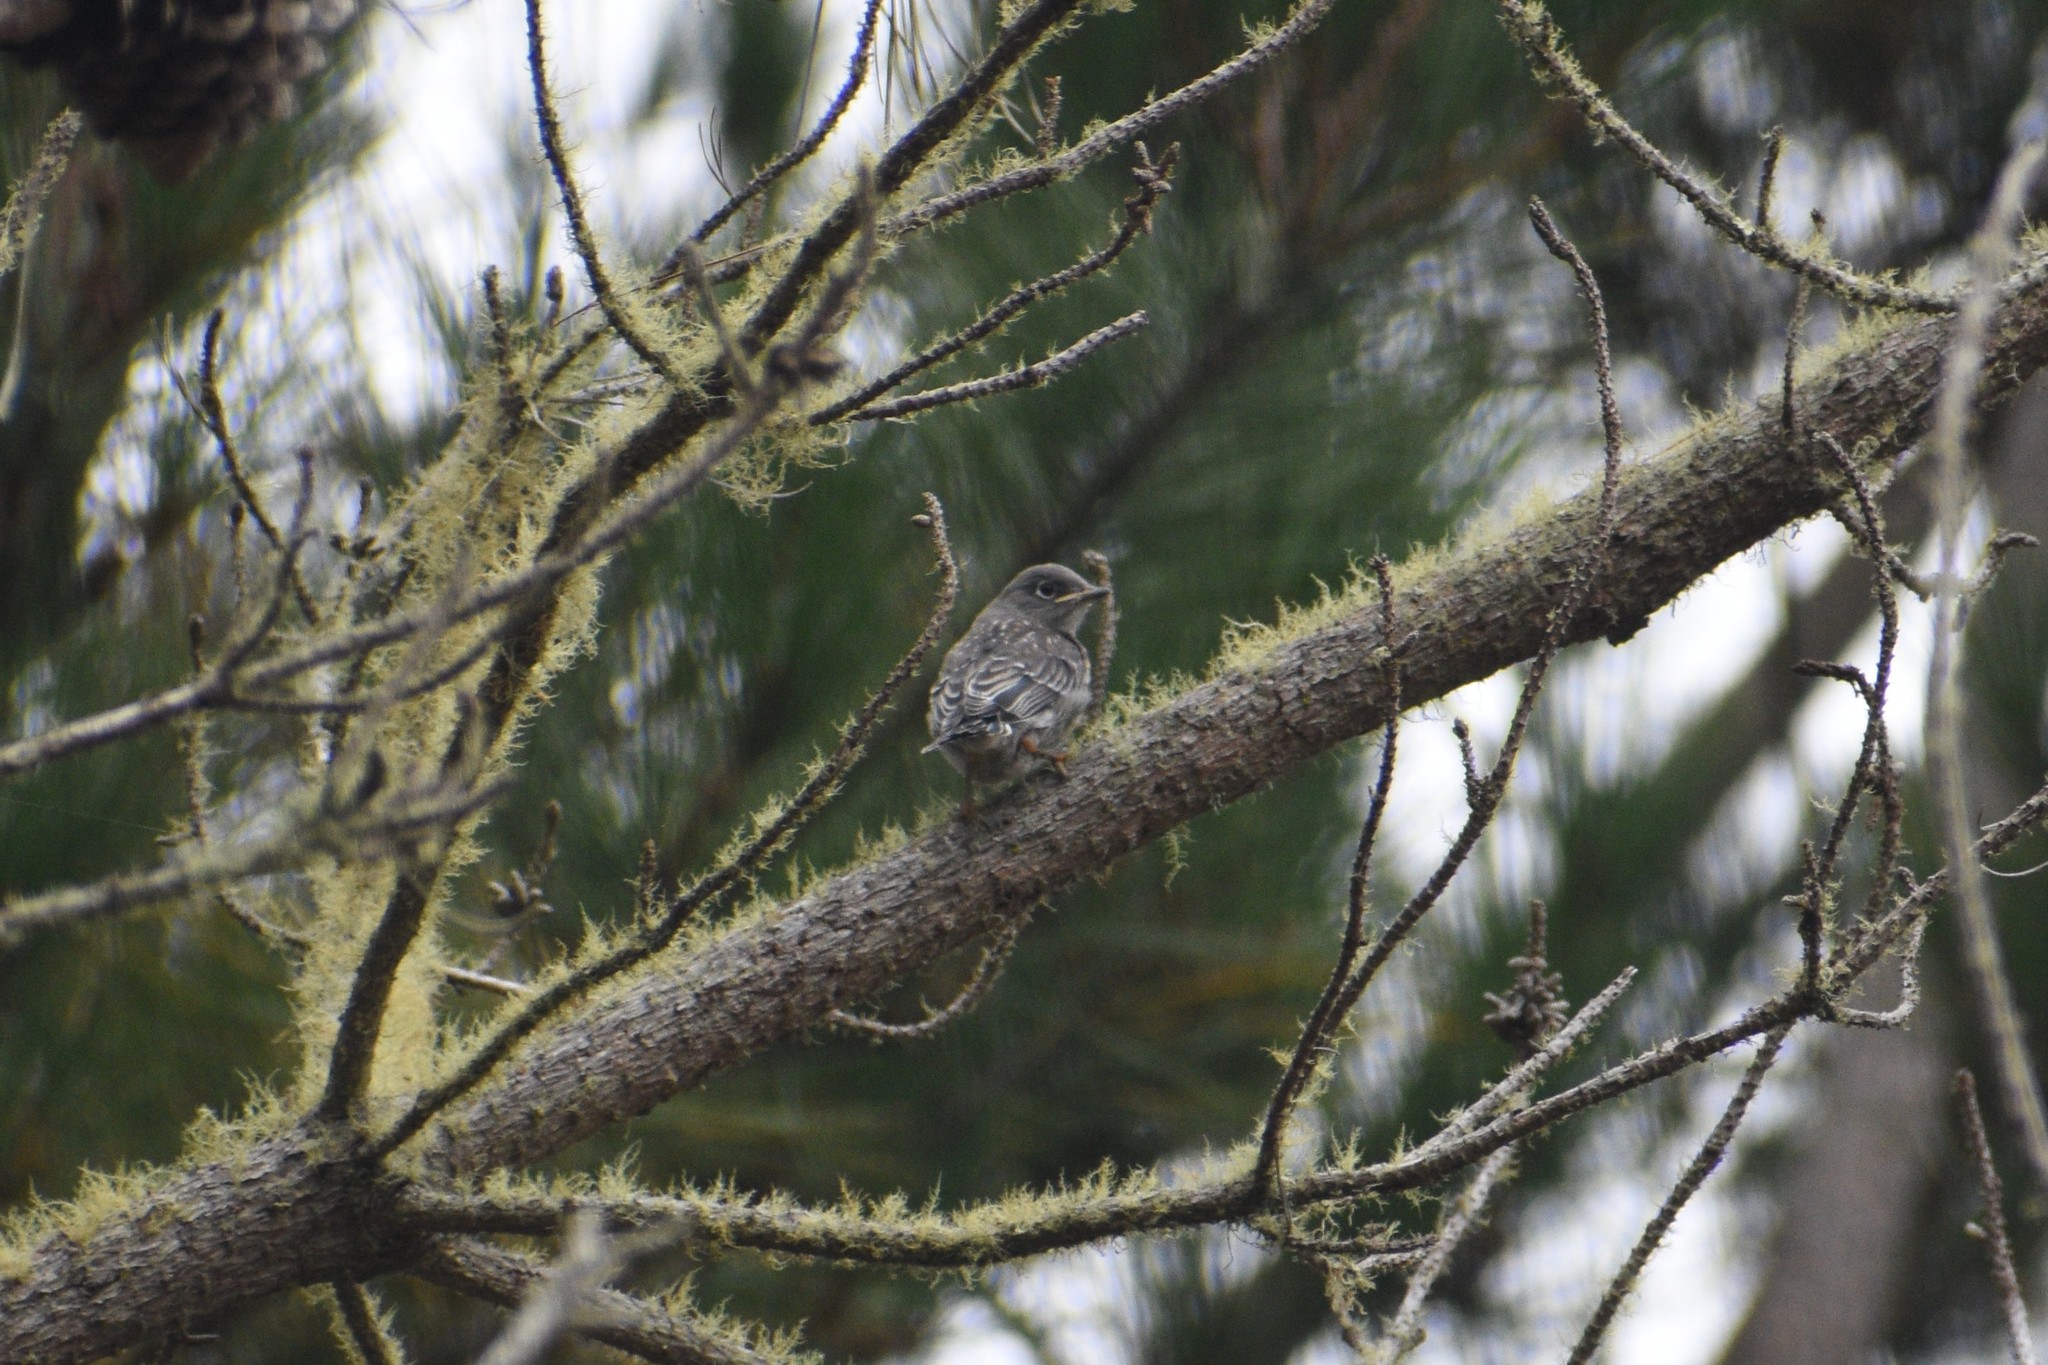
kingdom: Animalia
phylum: Chordata
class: Aves
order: Passeriformes
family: Turdidae
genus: Sialia
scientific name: Sialia mexicana
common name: Western bluebird
